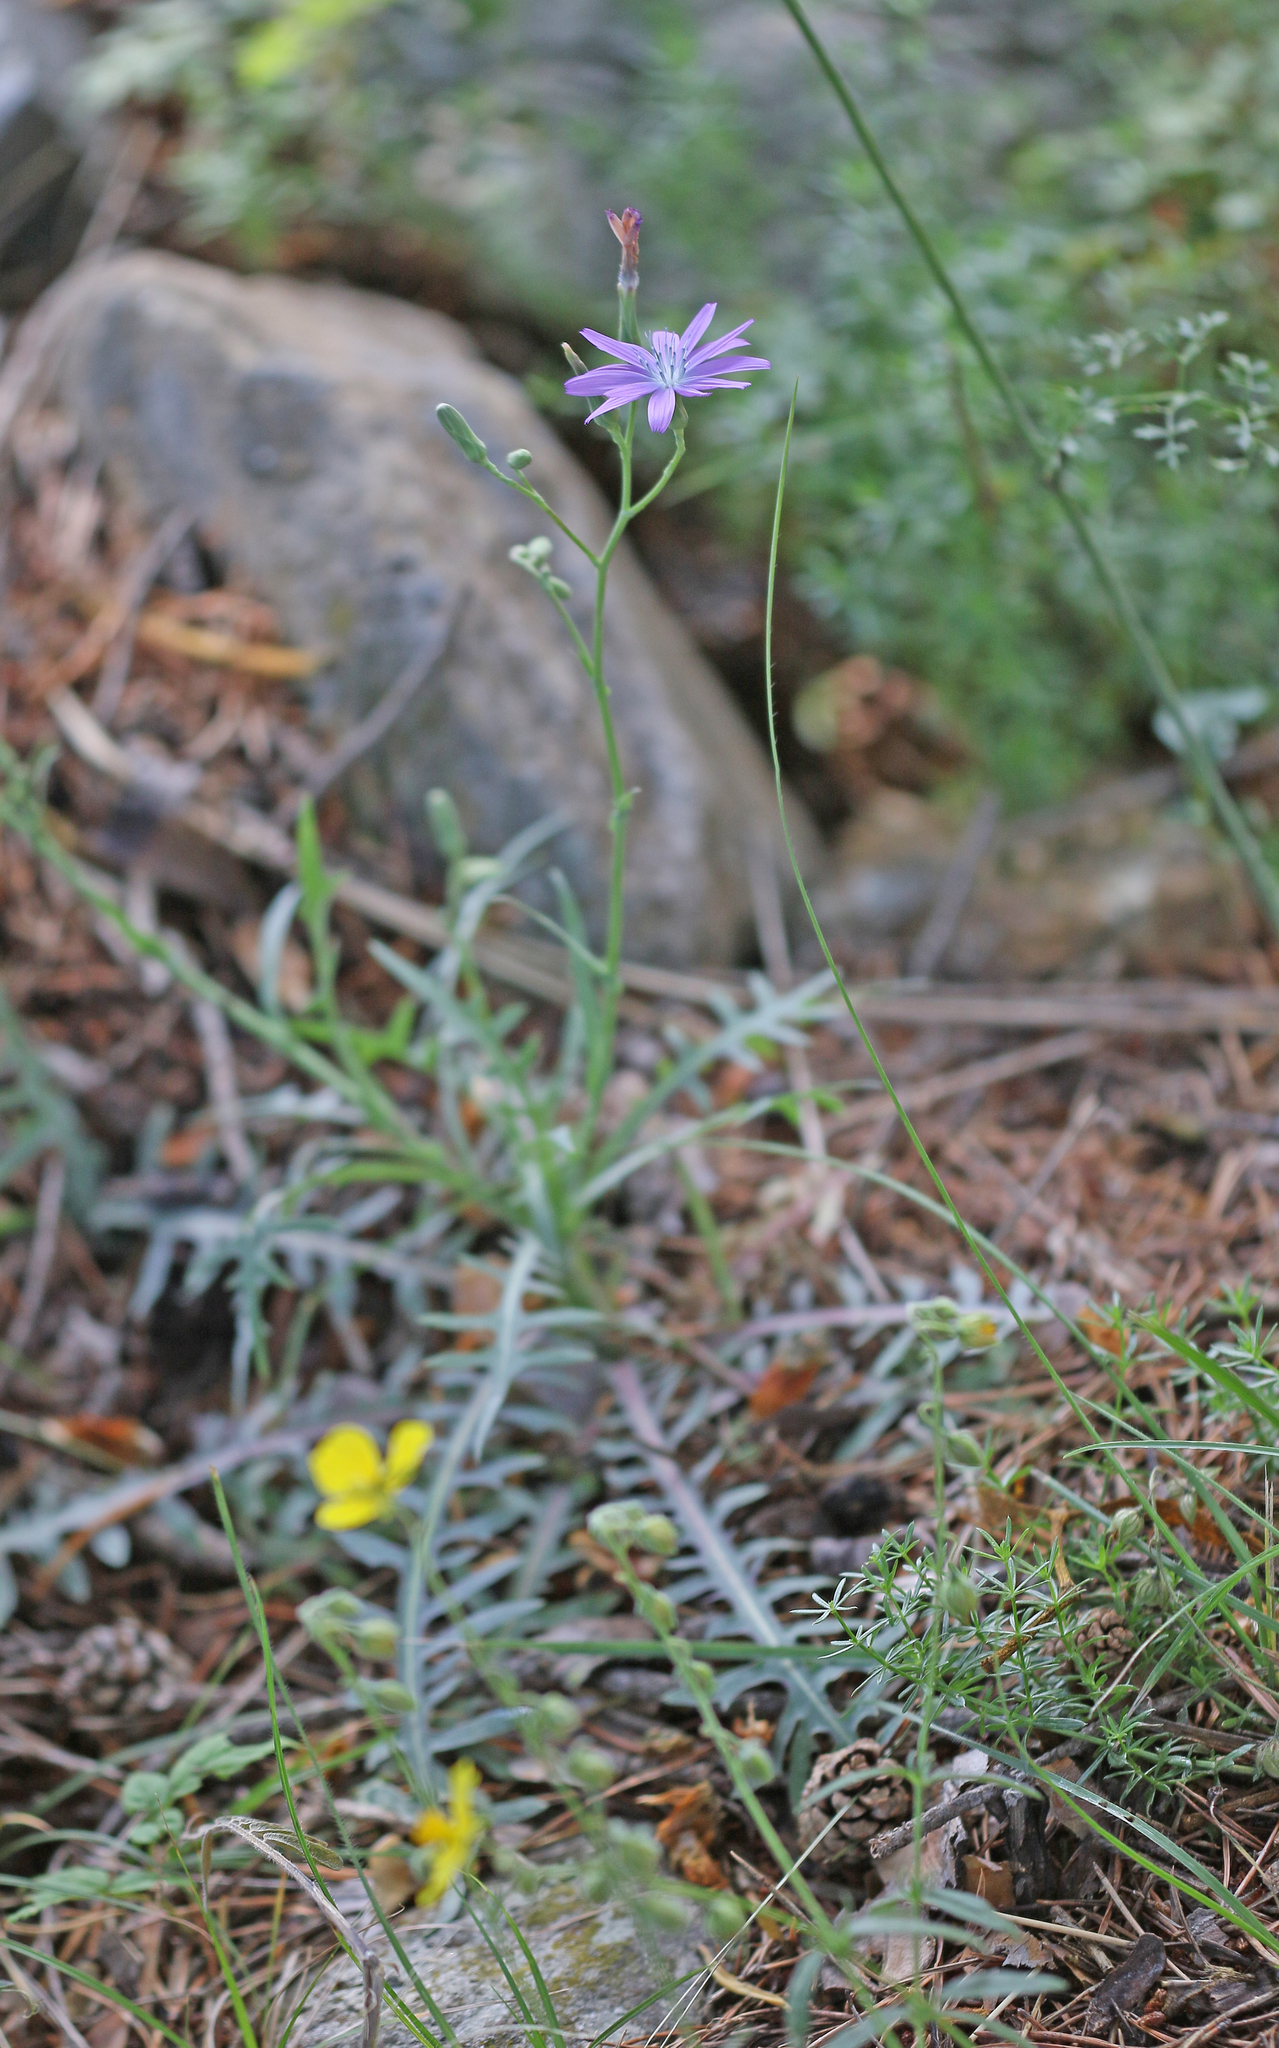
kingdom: Plantae
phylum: Tracheophyta
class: Magnoliopsida
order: Asterales
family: Asteraceae
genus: Lactuca
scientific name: Lactuca perennis
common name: Mountain lettuce
